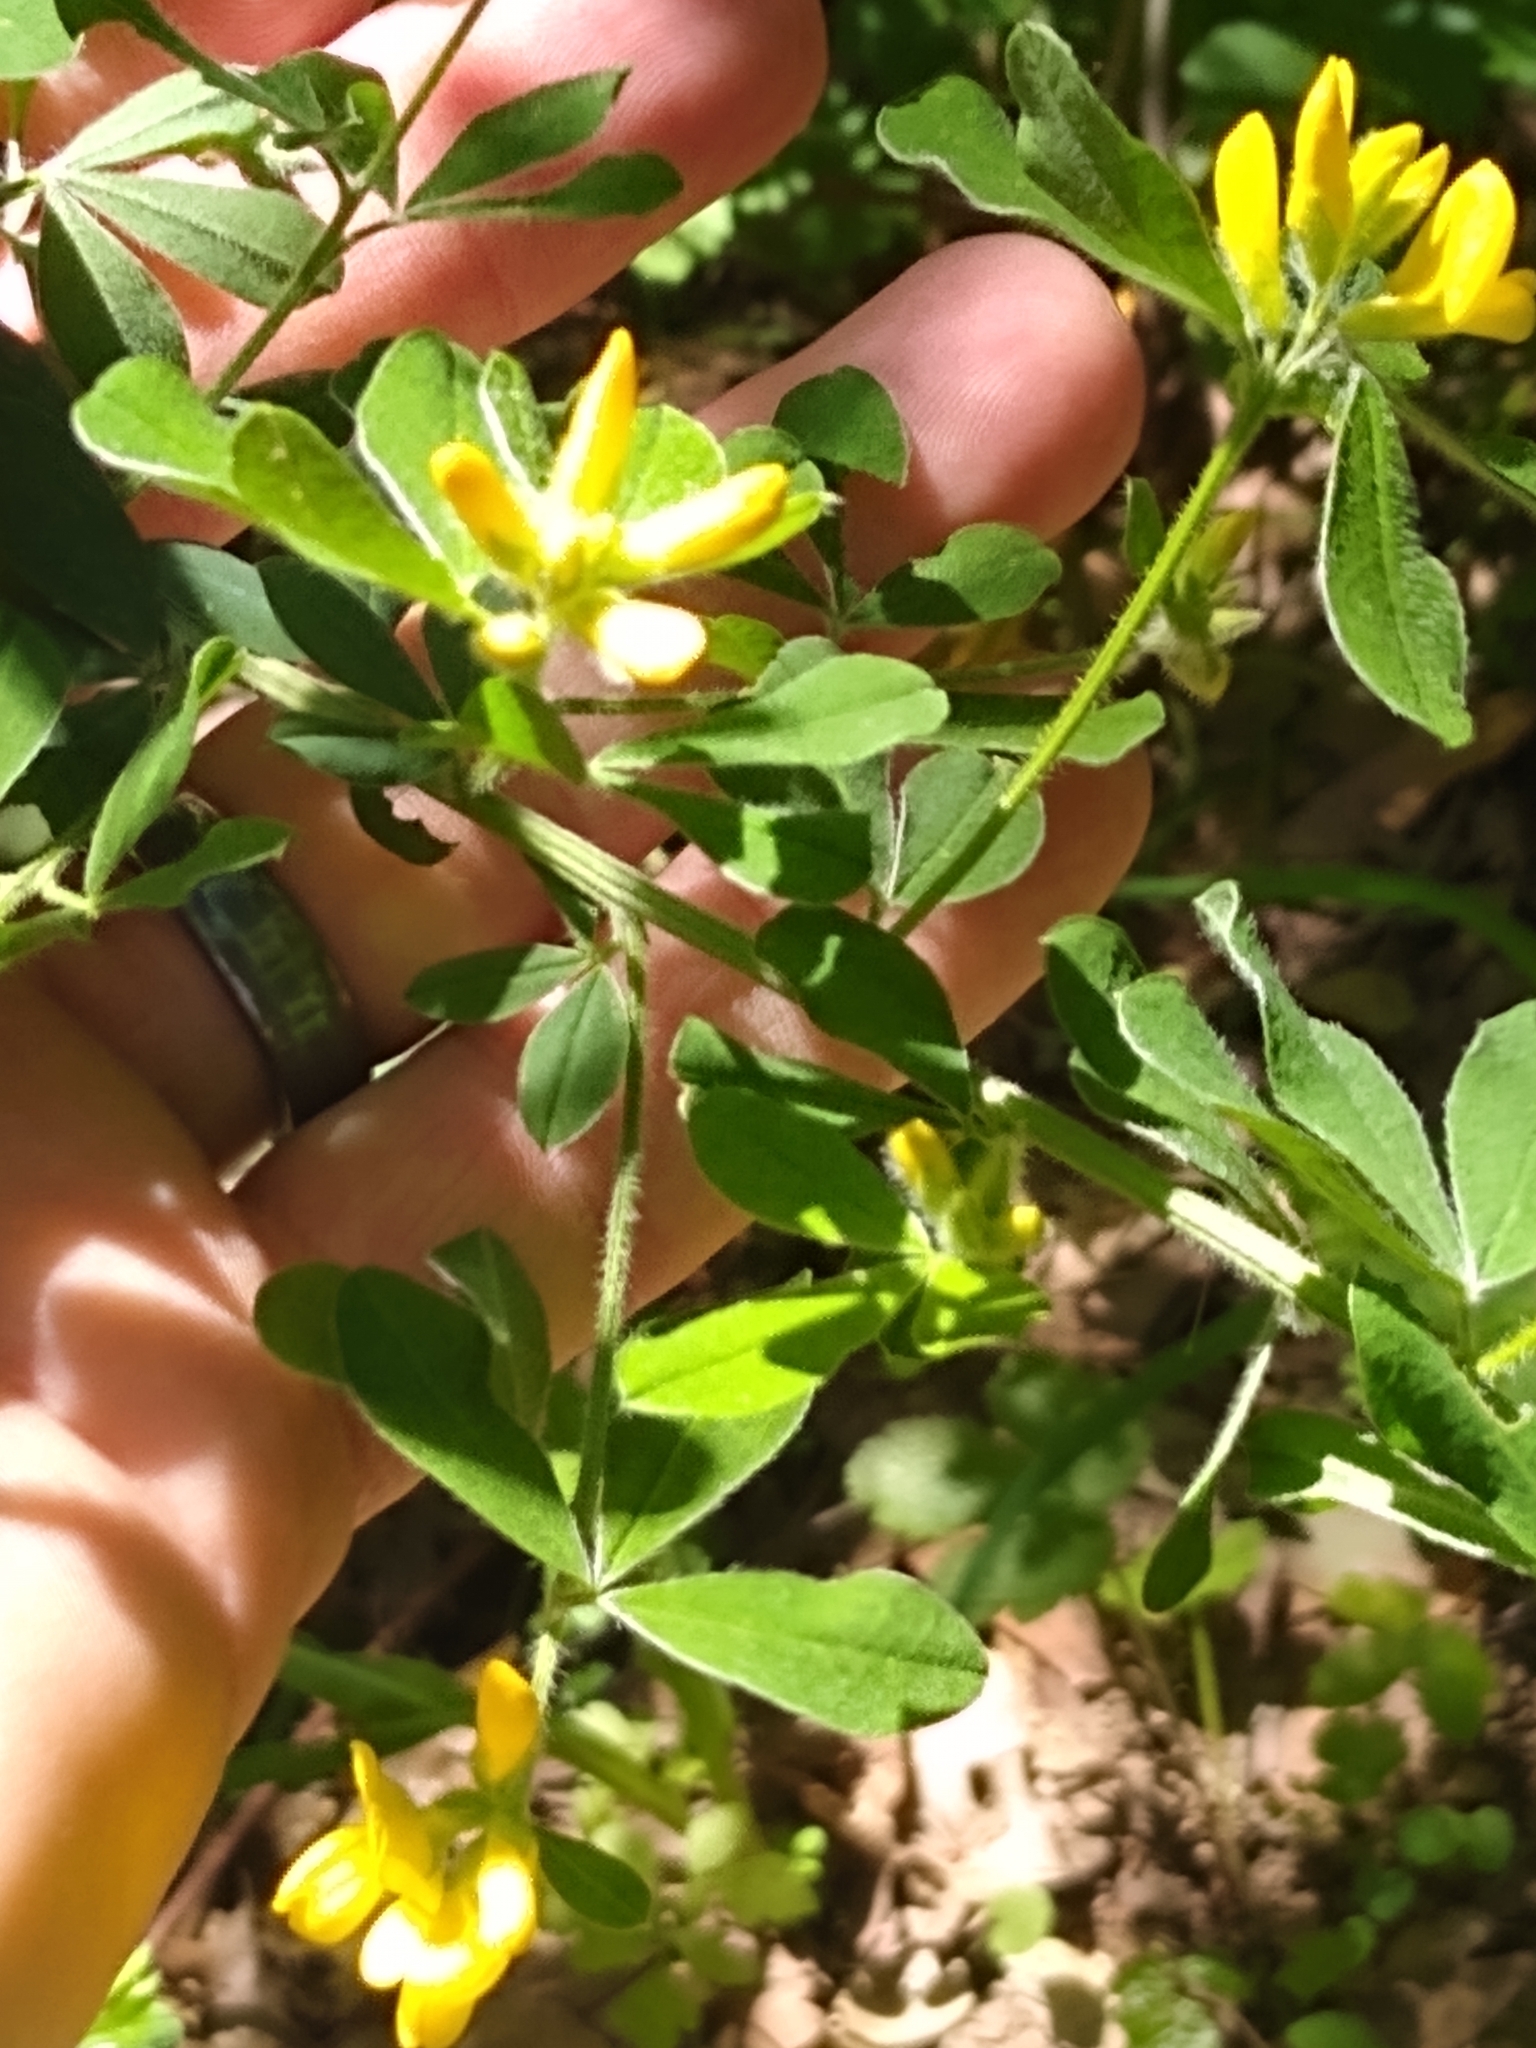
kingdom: Plantae
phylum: Tracheophyta
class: Magnoliopsida
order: Fabales
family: Fabaceae
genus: Genista
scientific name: Genista monspessulana
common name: Montpellier broom
